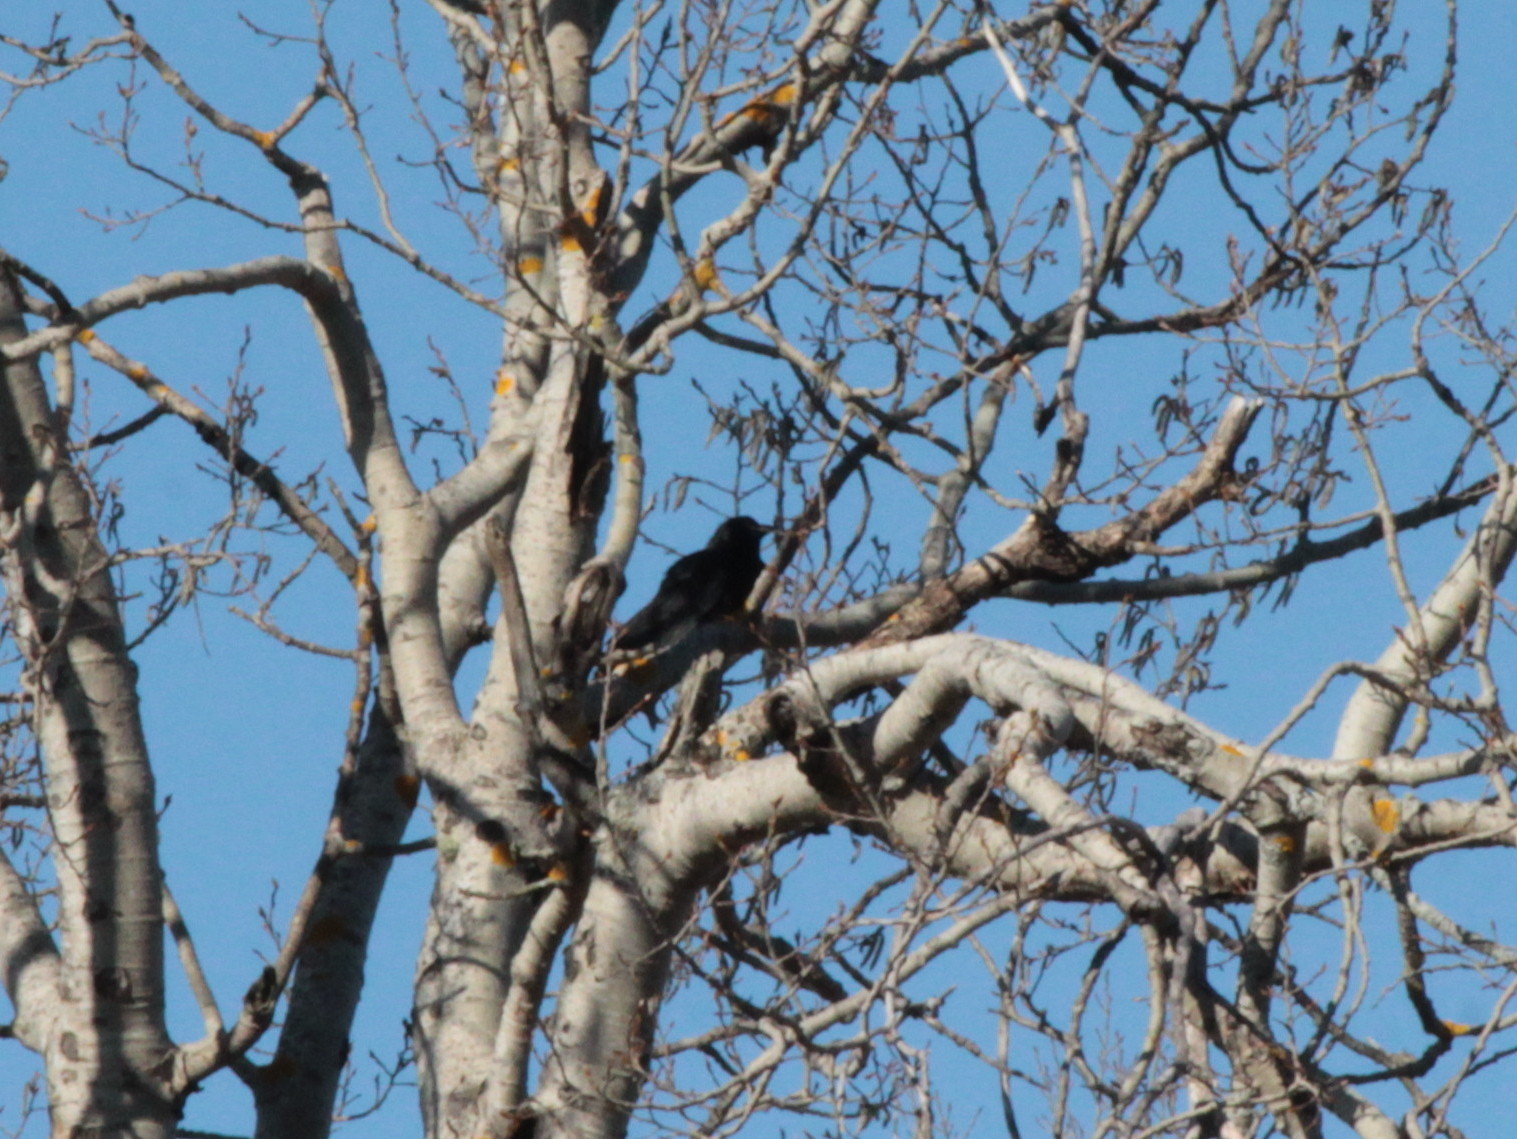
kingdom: Animalia
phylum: Chordata
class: Aves
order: Passeriformes
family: Corvidae
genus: Corvus
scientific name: Corvus brachyrhynchos
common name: American crow
